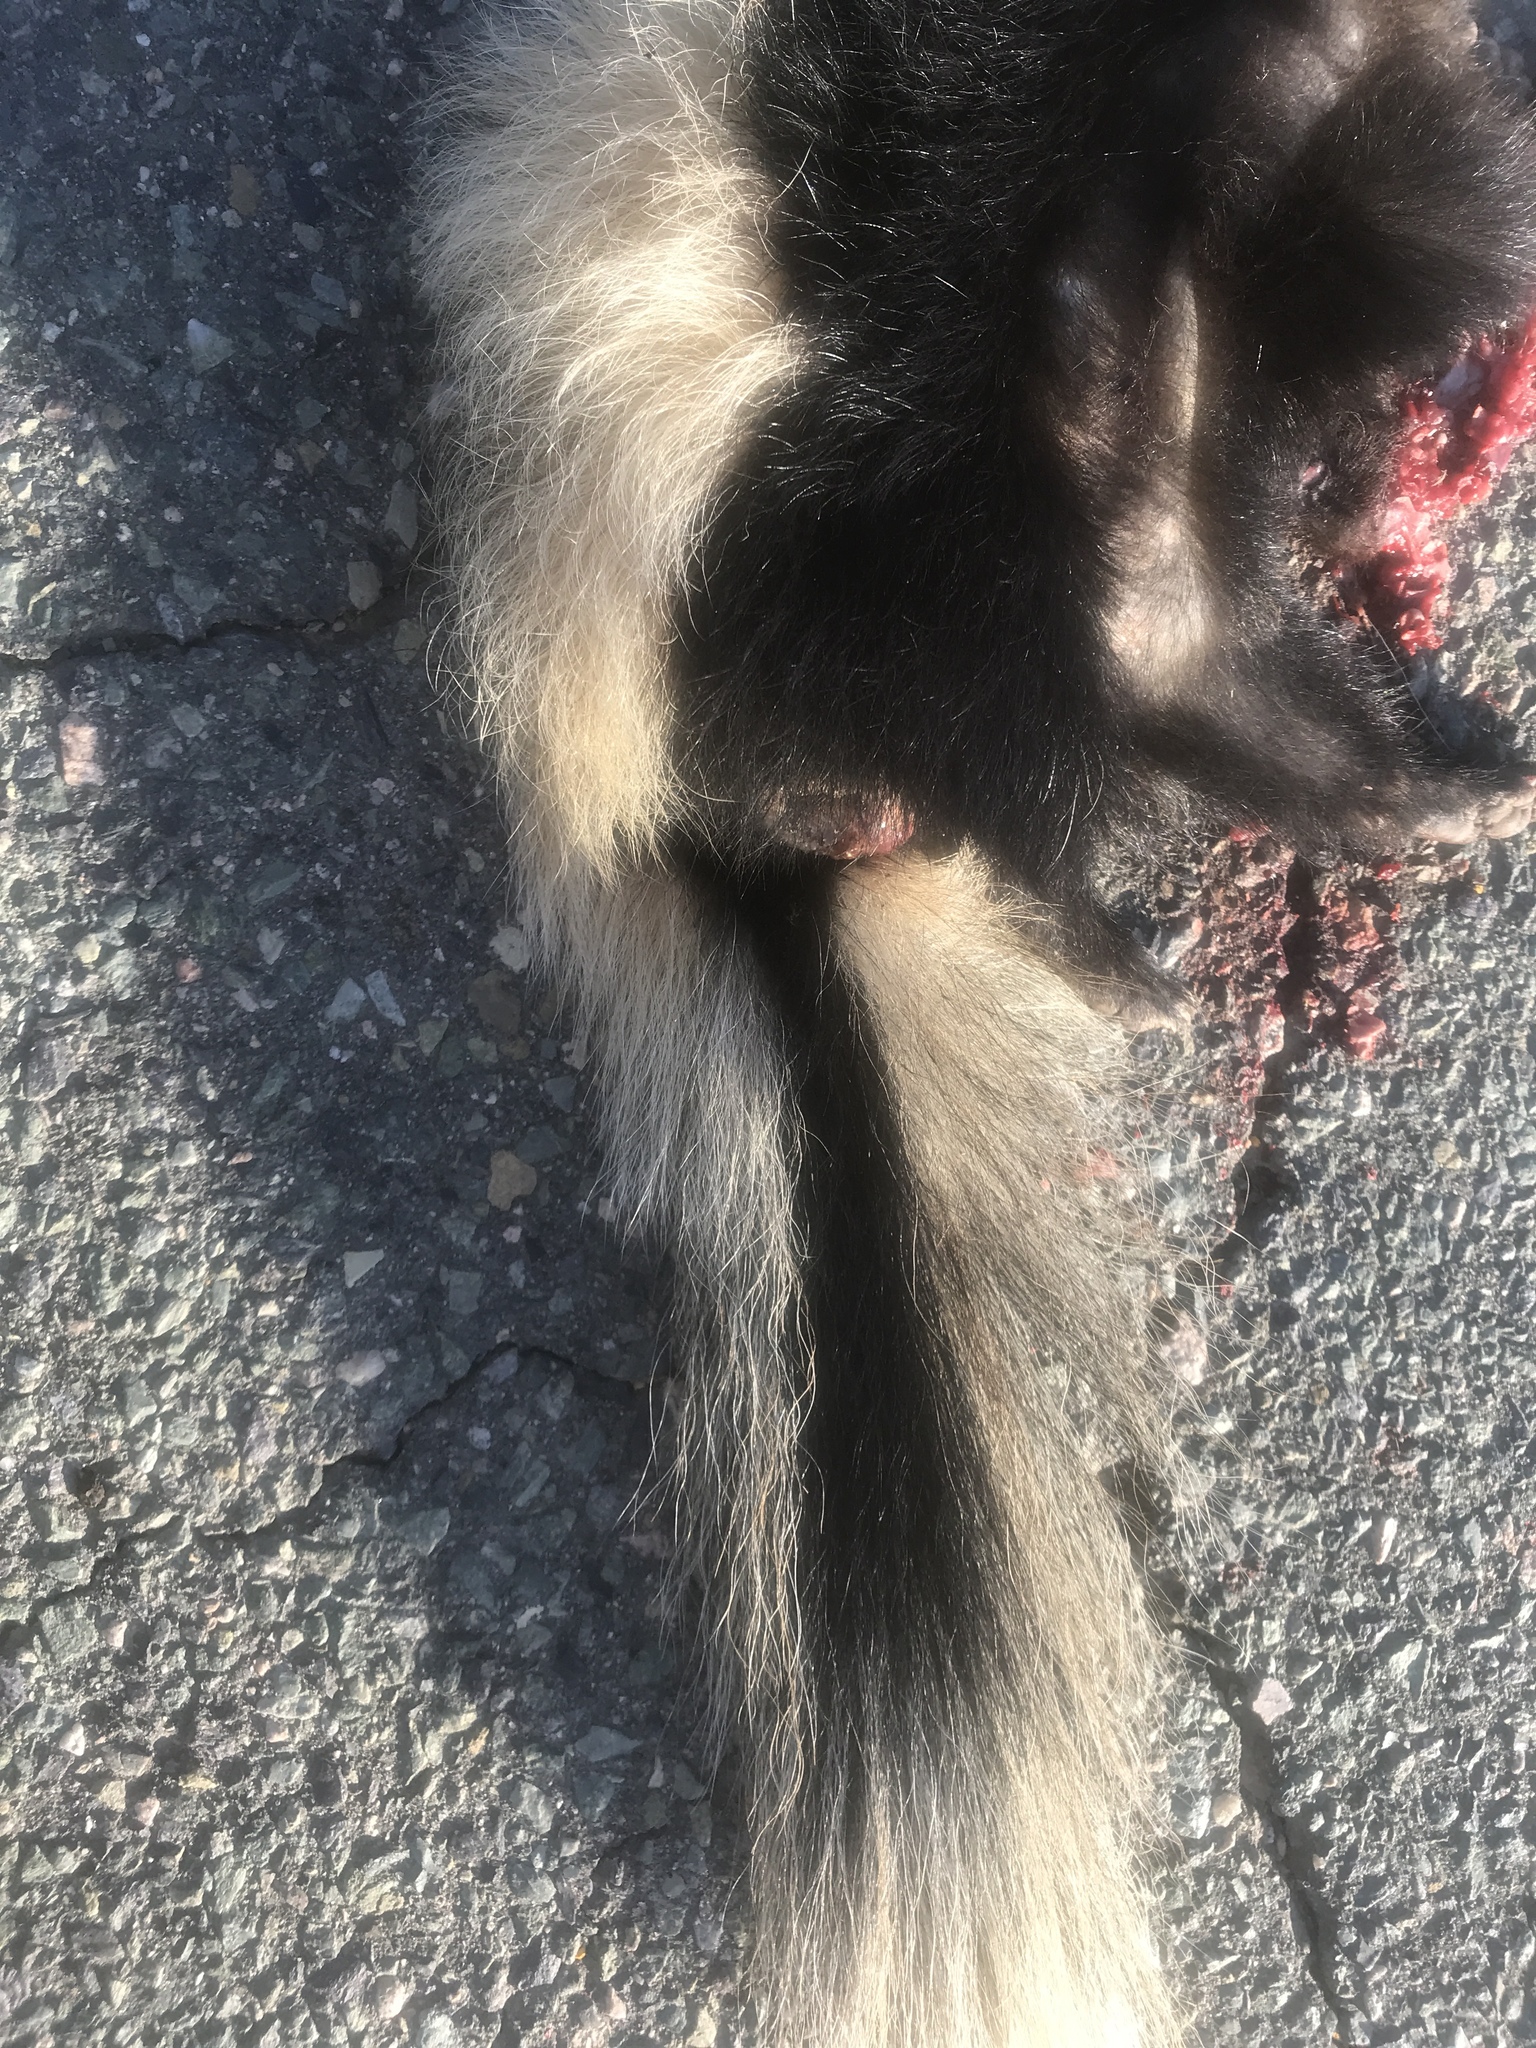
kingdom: Animalia
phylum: Chordata
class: Mammalia
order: Carnivora
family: Mephitidae
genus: Mephitis
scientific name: Mephitis mephitis
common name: Striped skunk
